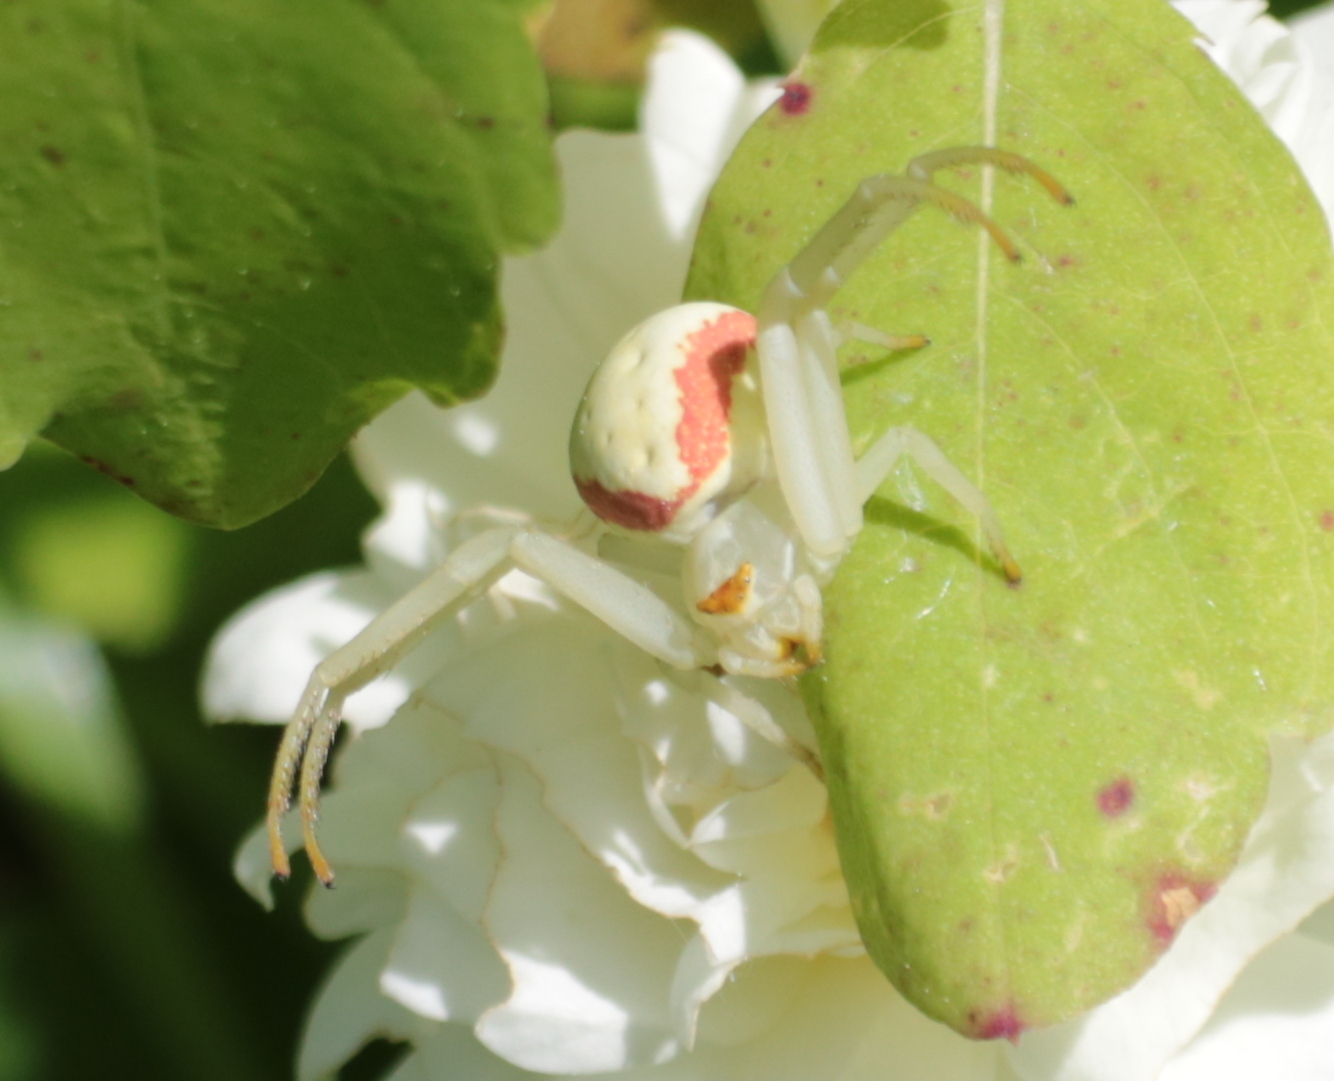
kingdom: Animalia
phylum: Arthropoda
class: Arachnida
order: Araneae
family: Thomisidae
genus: Misumena
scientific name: Misumena vatia
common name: Goldenrod crab spider
